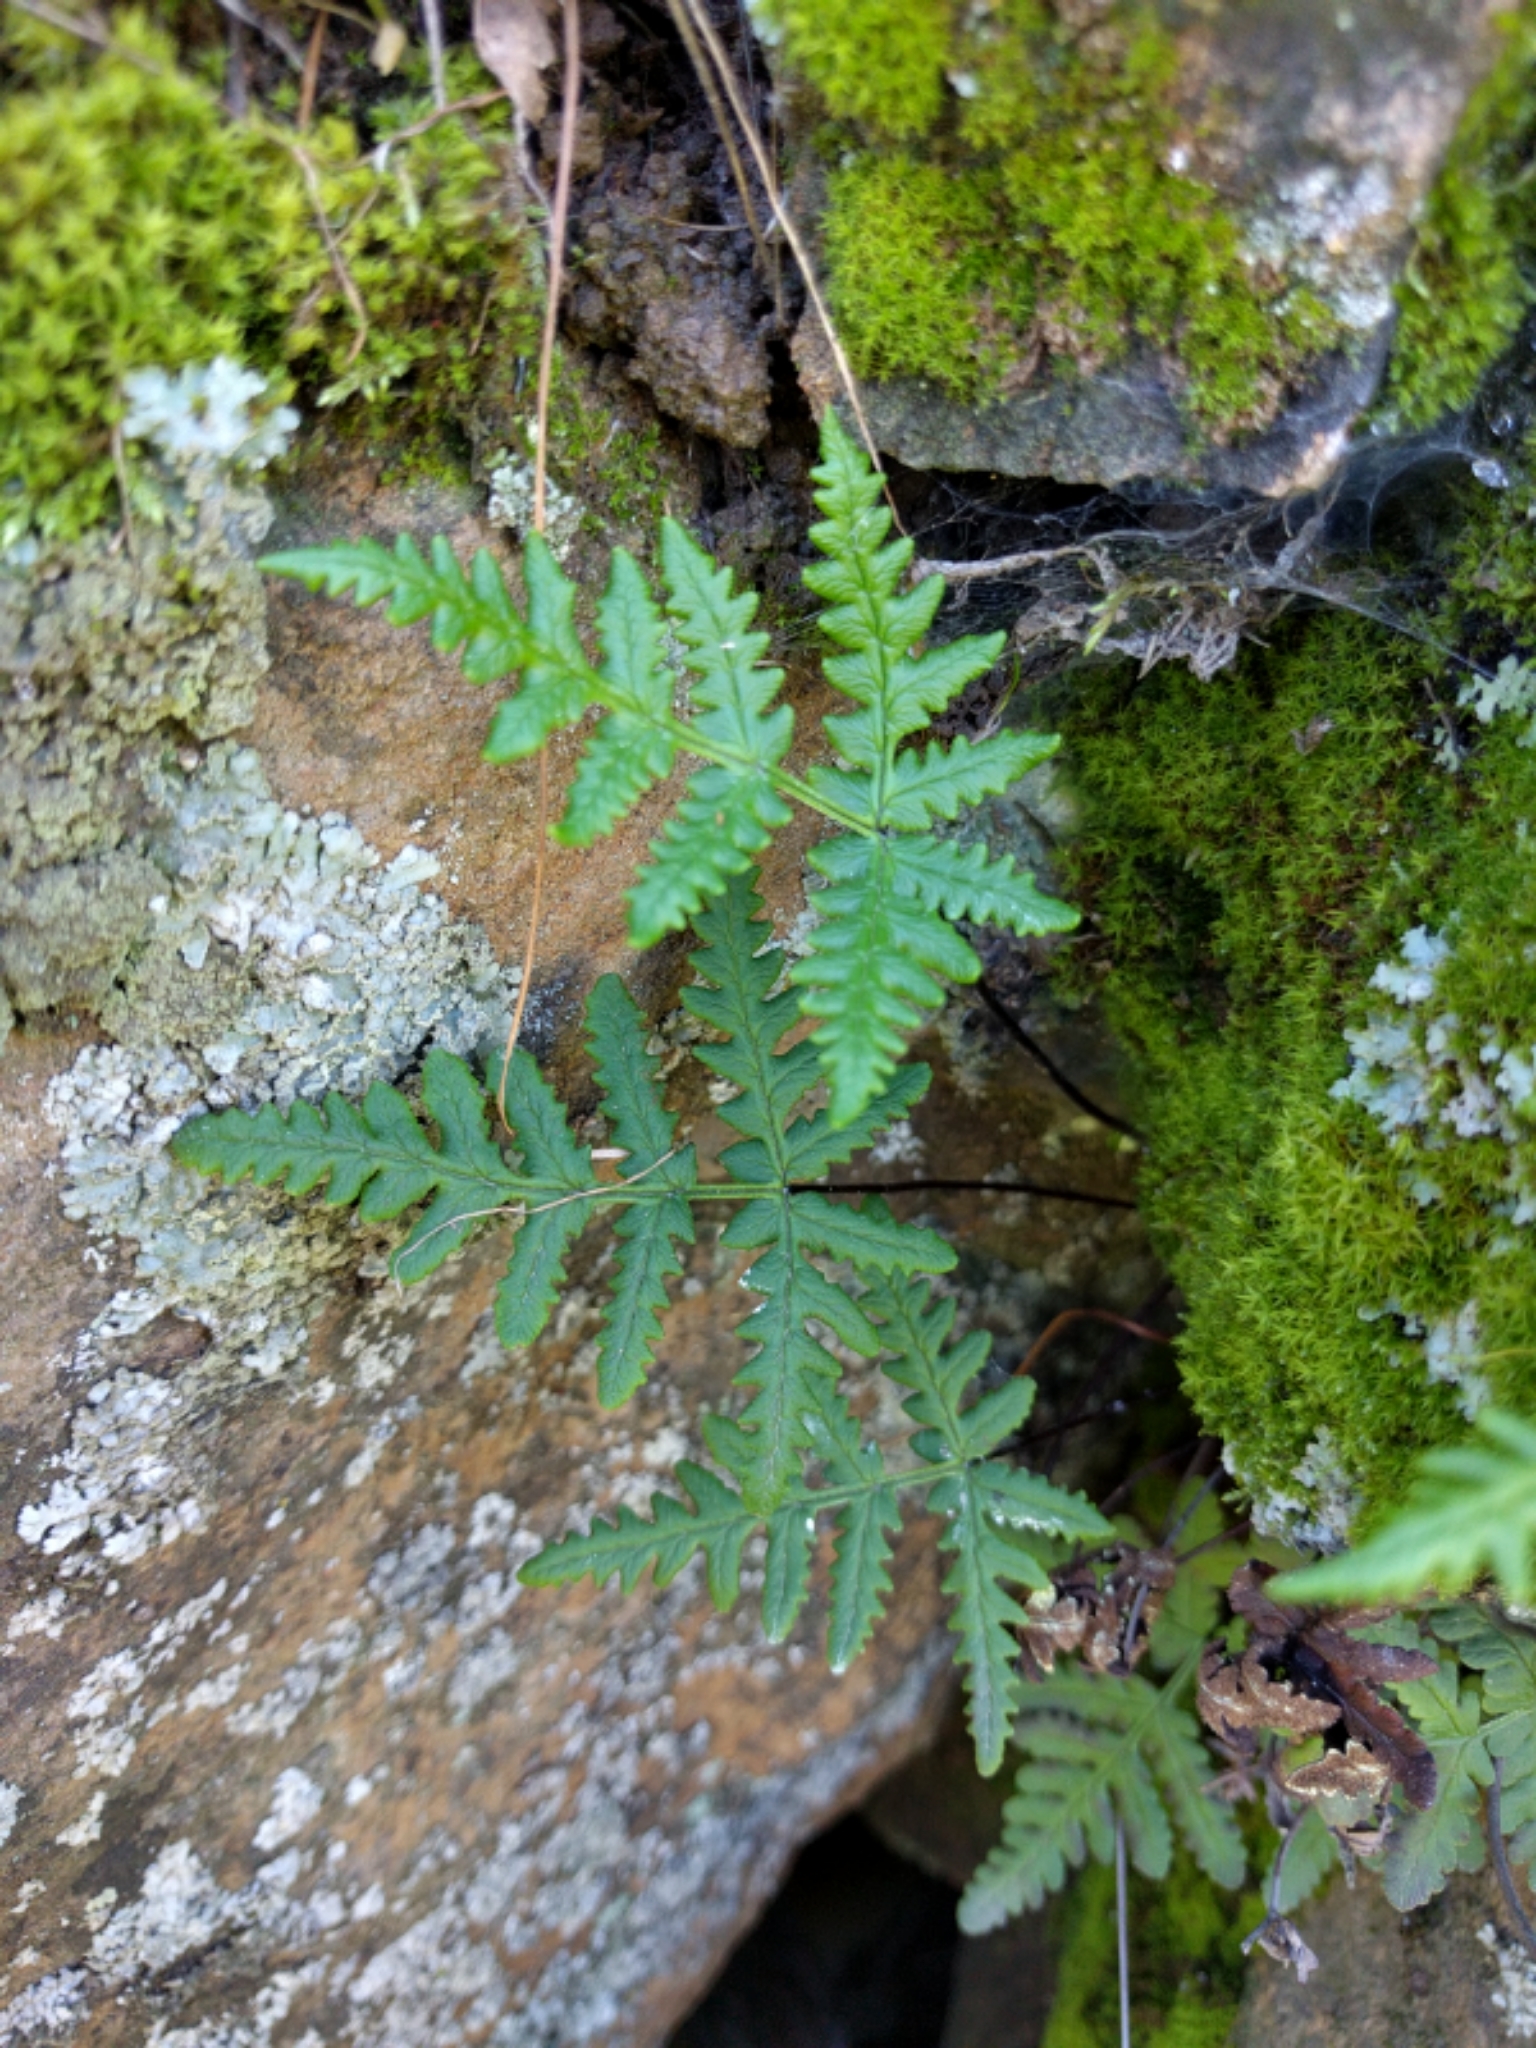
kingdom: Plantae
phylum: Tracheophyta
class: Polypodiopsida
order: Polypodiales
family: Pteridaceae
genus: Pentagramma
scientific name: Pentagramma triangularis
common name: Gold fern
